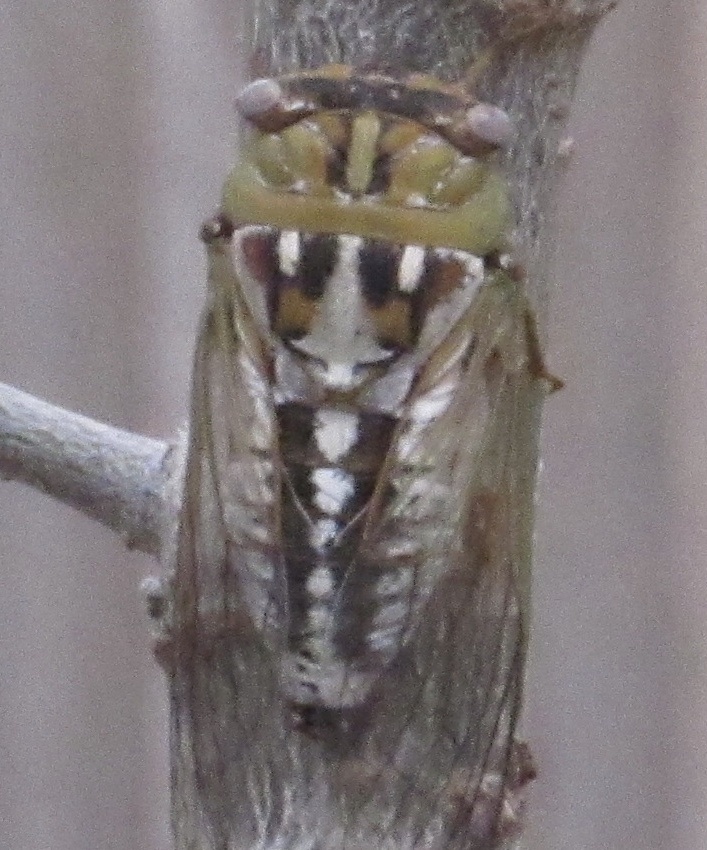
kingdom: Animalia
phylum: Arthropoda
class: Insecta
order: Hemiptera
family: Cicadidae
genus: Megatibicen
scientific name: Megatibicen dealbatus
